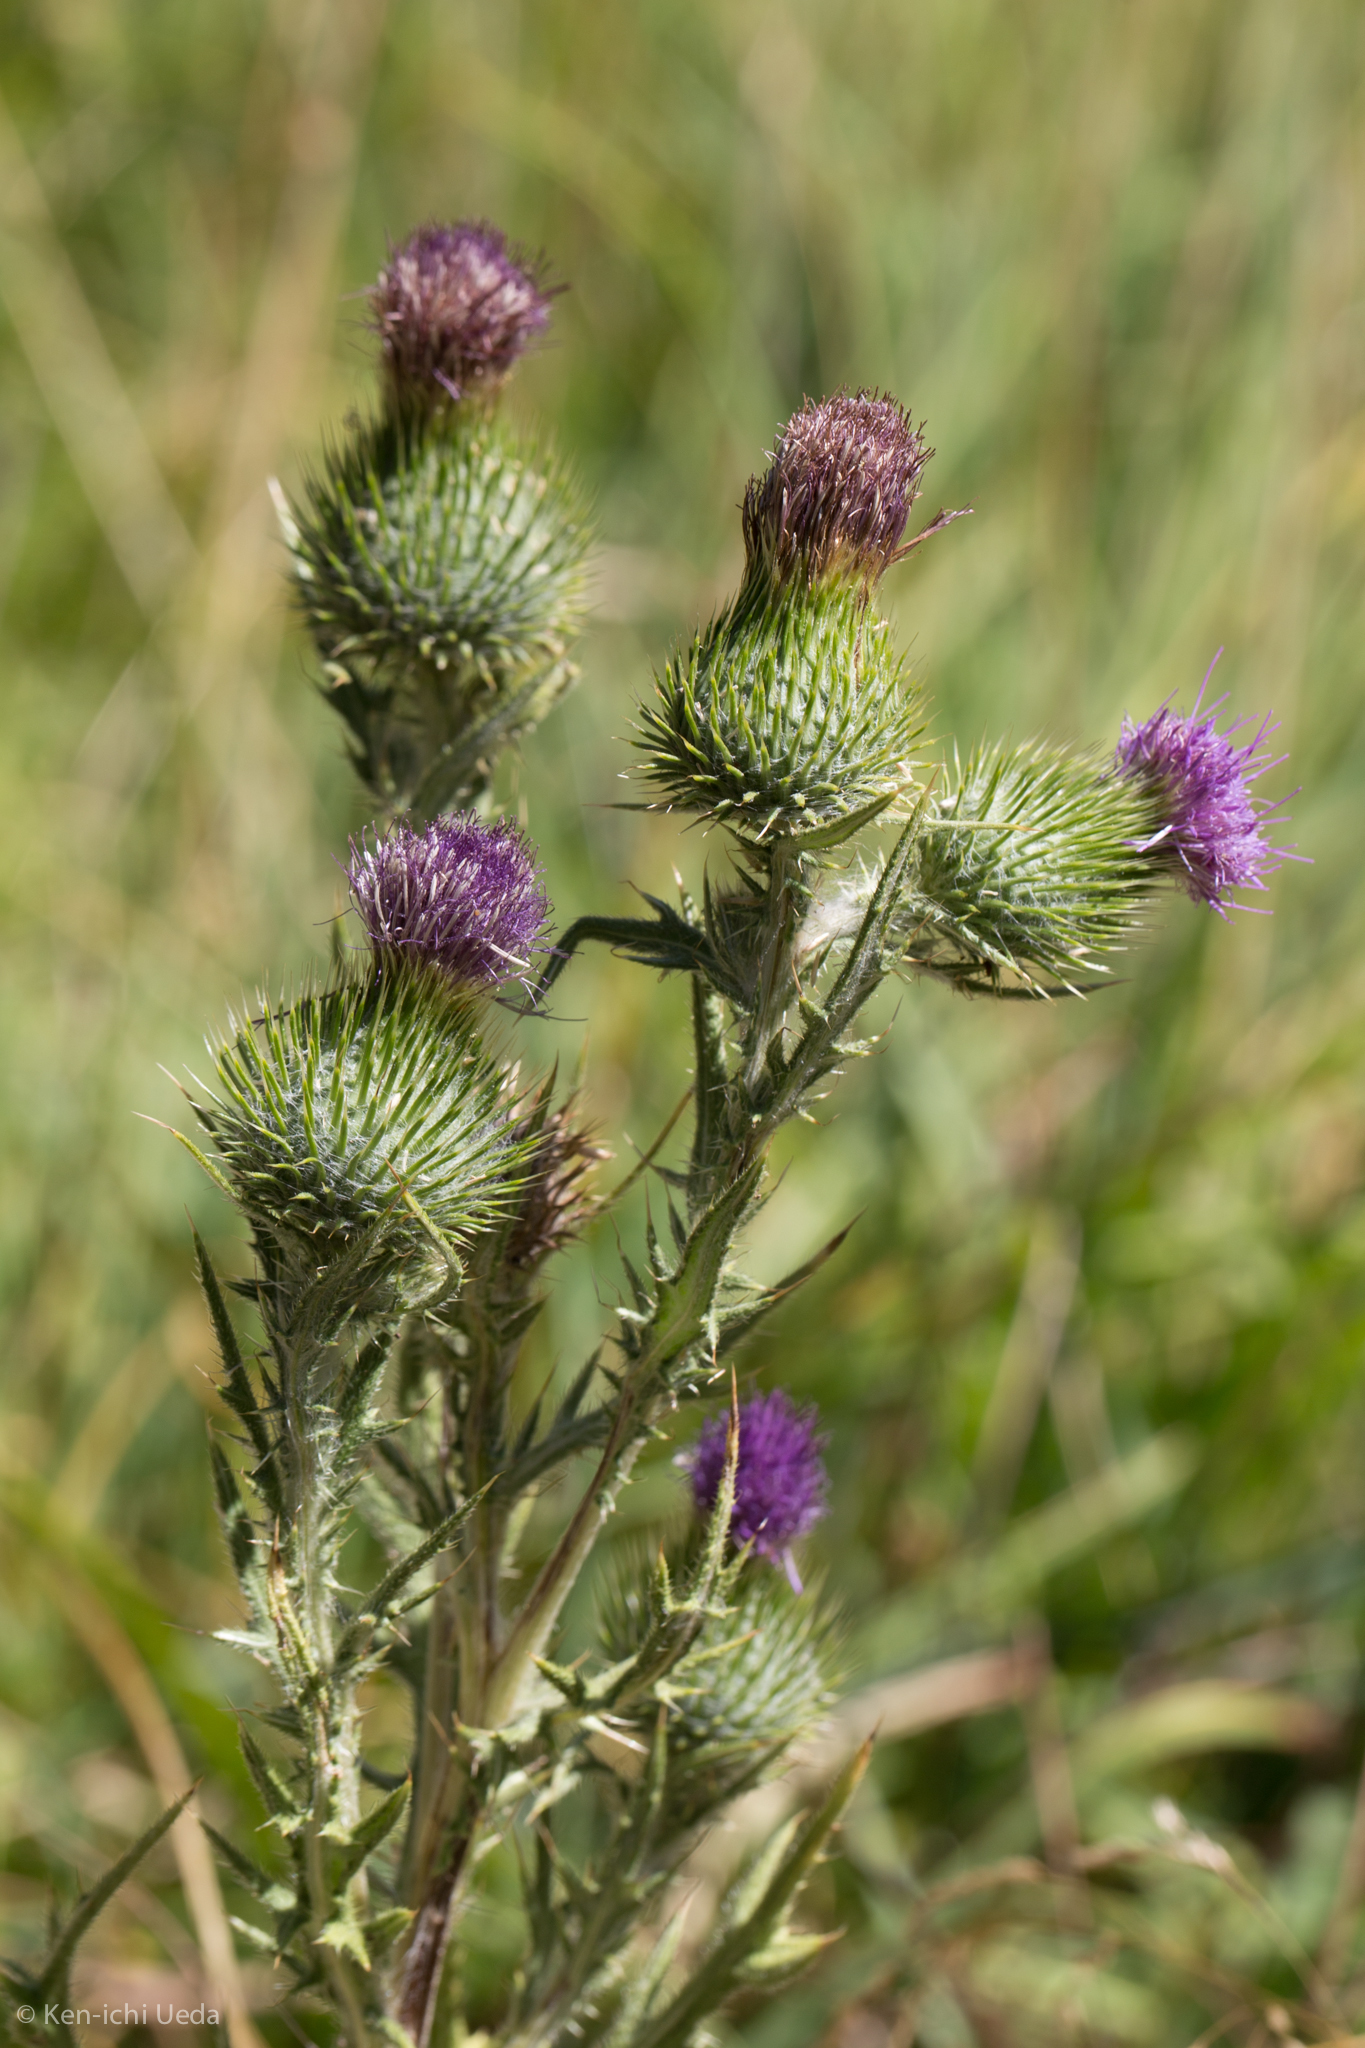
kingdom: Plantae
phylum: Tracheophyta
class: Magnoliopsida
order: Asterales
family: Asteraceae
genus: Cirsium
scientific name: Cirsium vulgare
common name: Bull thistle
